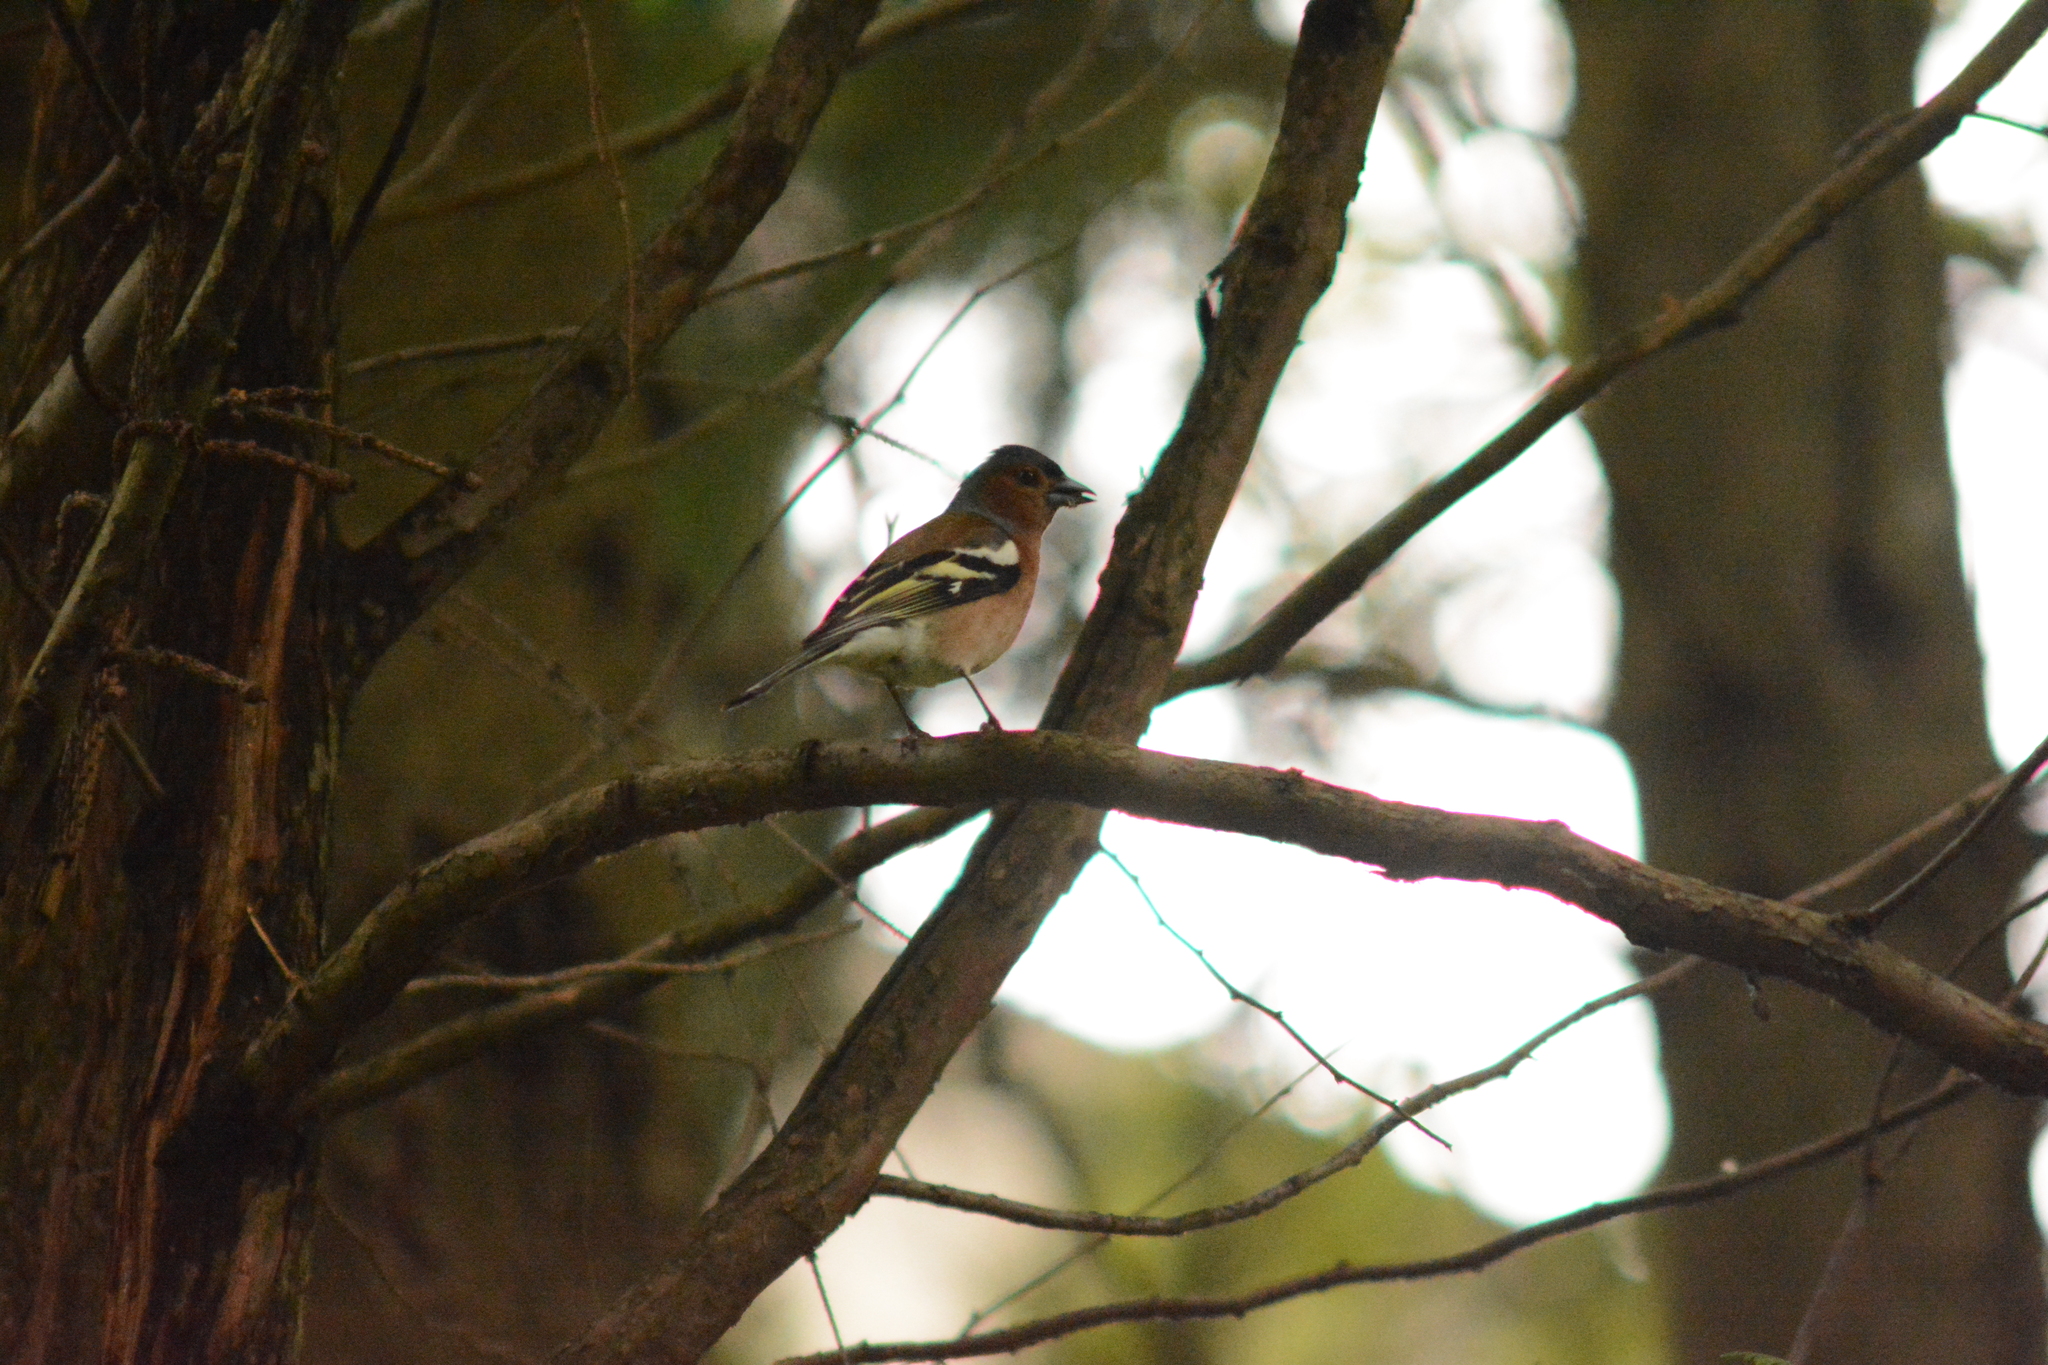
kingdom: Animalia
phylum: Chordata
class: Aves
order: Passeriformes
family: Fringillidae
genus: Fringilla
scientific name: Fringilla coelebs
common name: Common chaffinch
